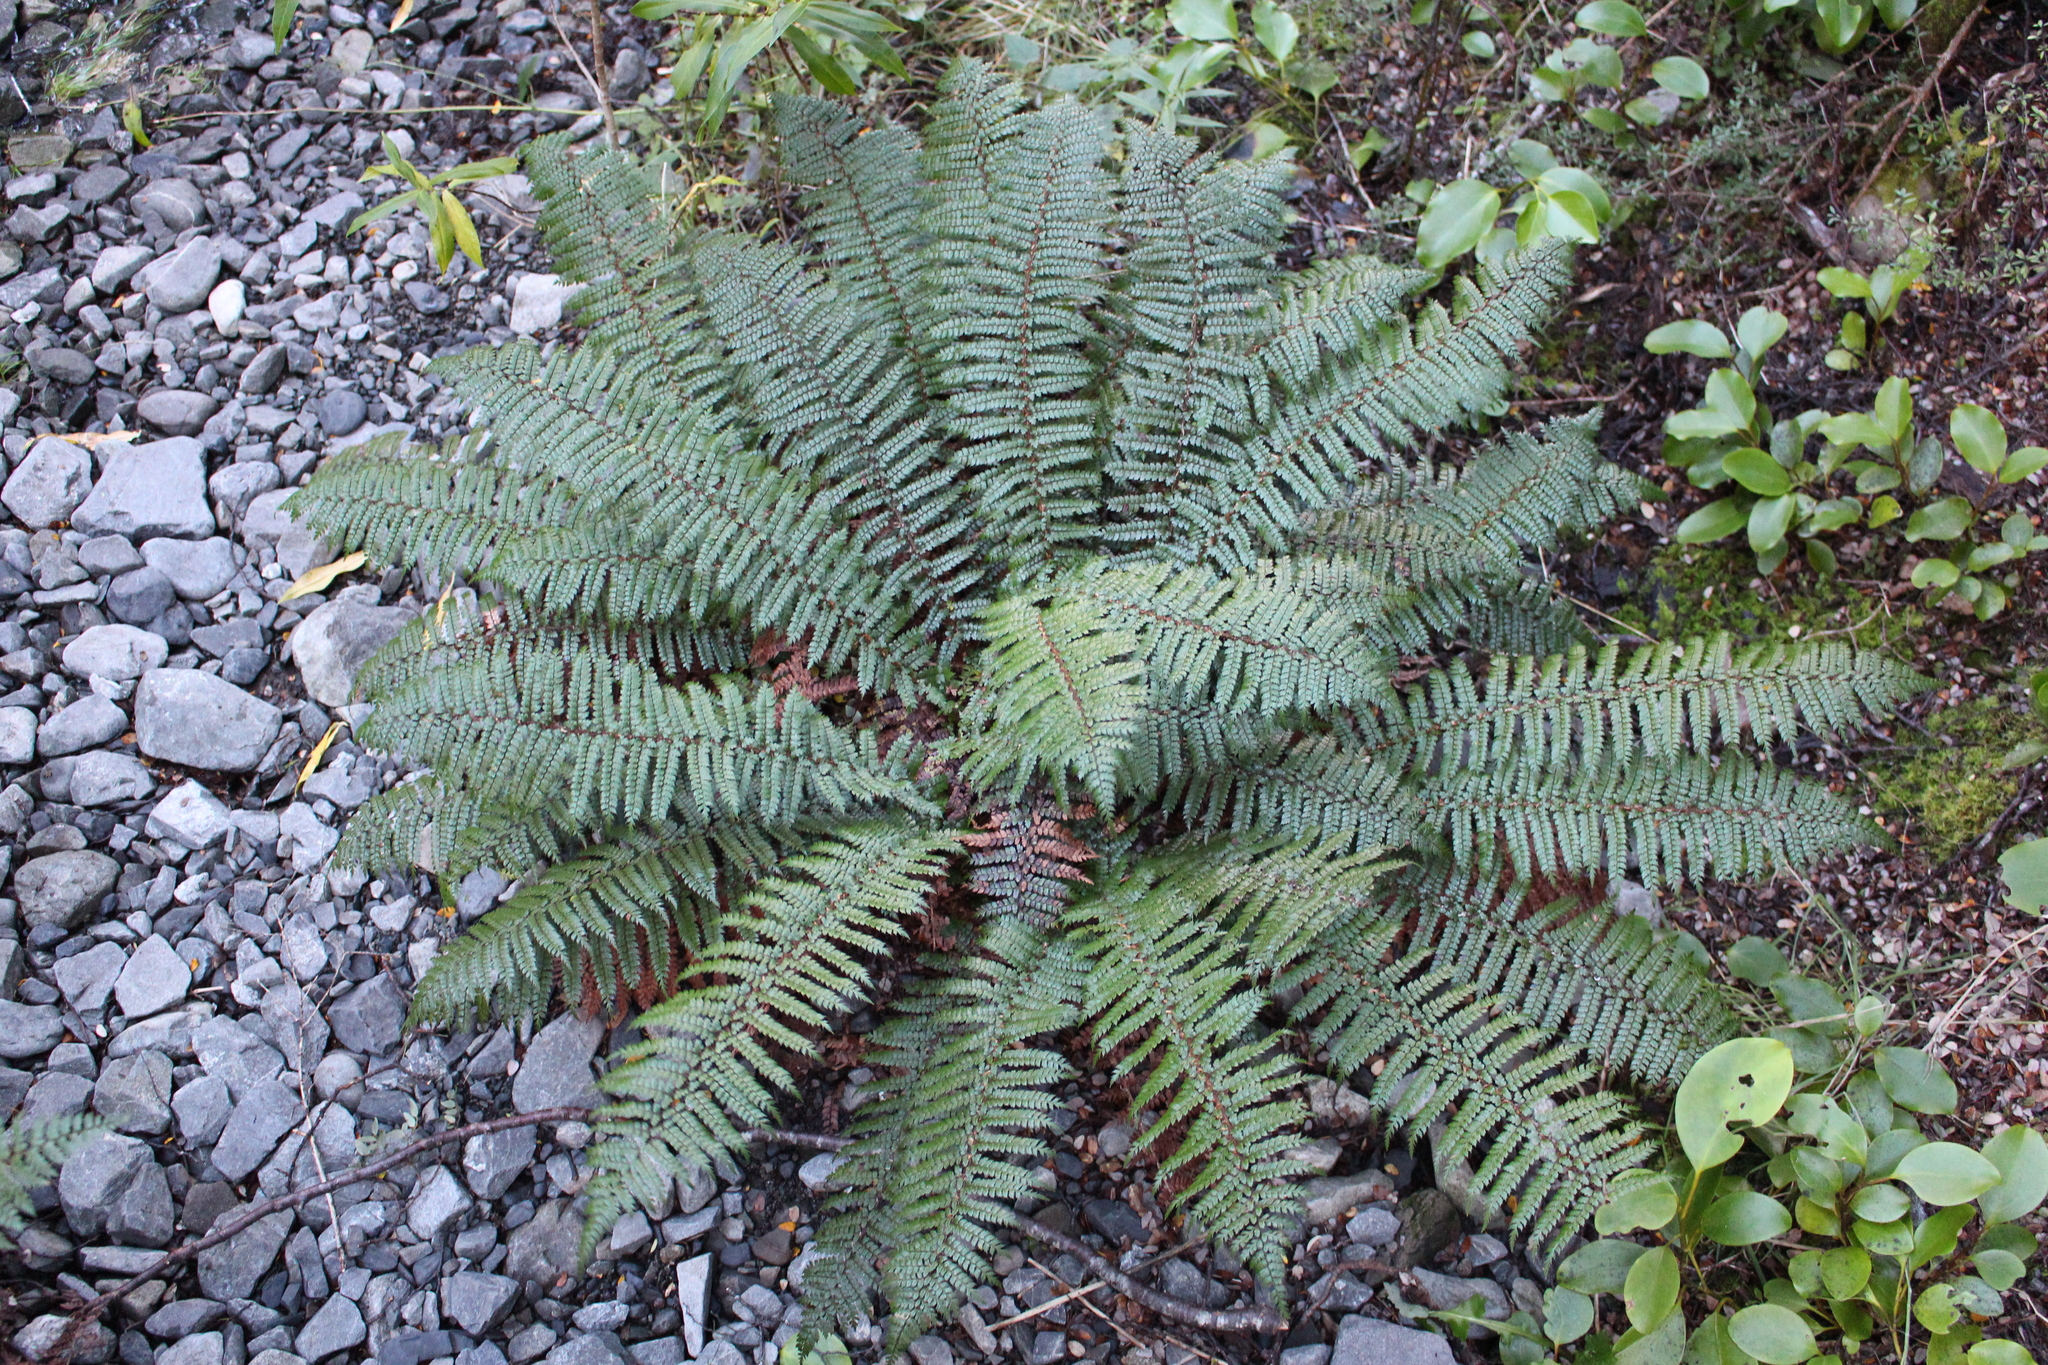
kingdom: Plantae
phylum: Tracheophyta
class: Polypodiopsida
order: Polypodiales
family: Dryopteridaceae
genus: Polystichum
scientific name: Polystichum vestitum
